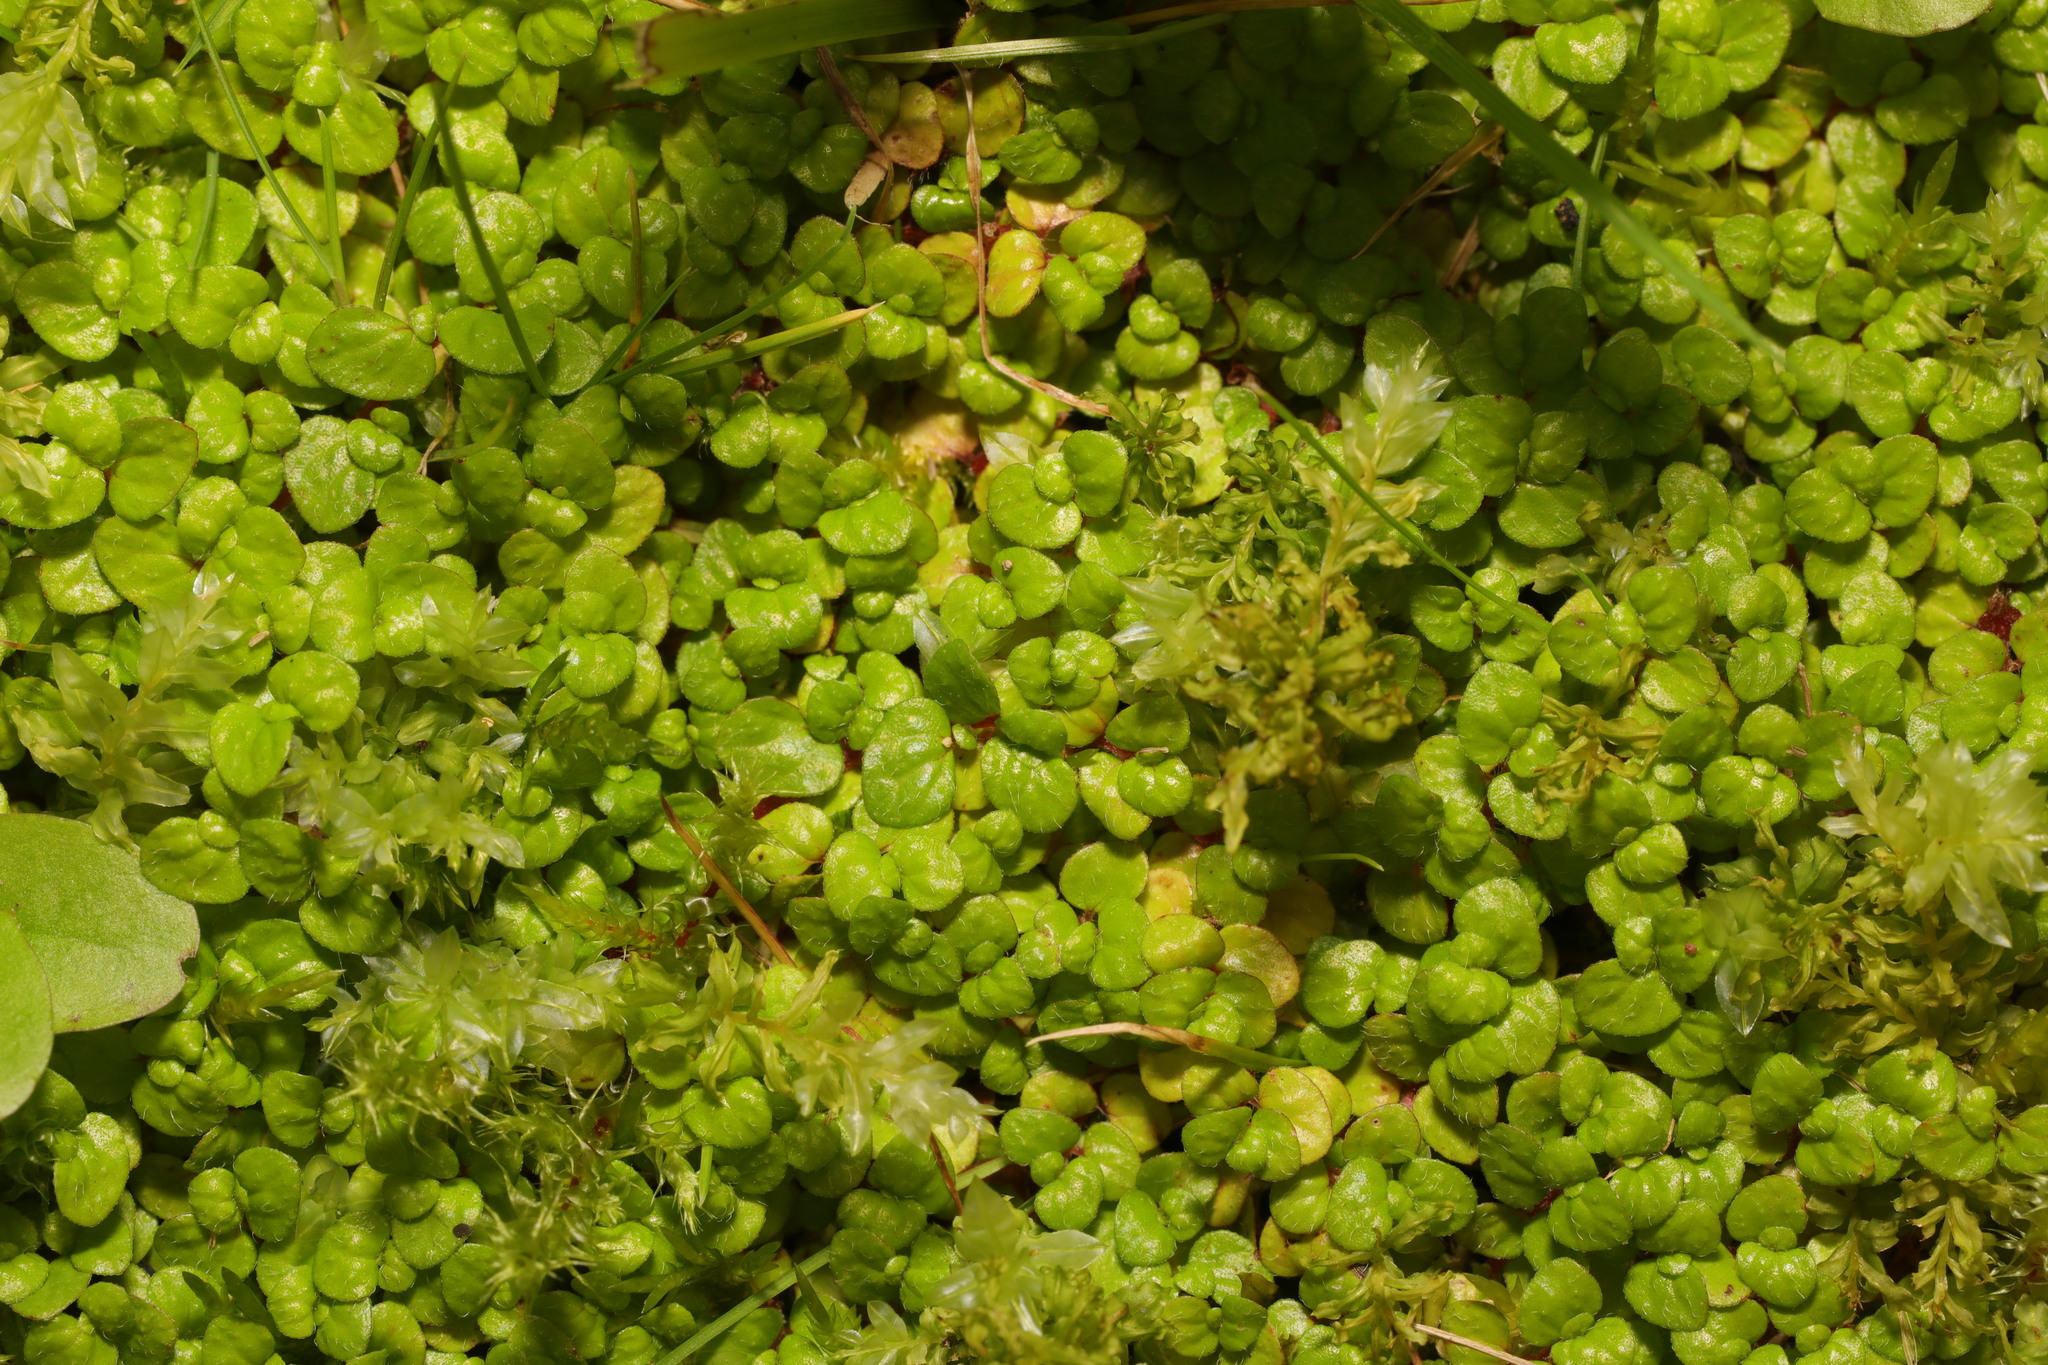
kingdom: Plantae
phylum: Tracheophyta
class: Magnoliopsida
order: Rosales
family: Urticaceae
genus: Soleirolia
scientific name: Soleirolia soleirolii
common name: Mind-your-own-business
